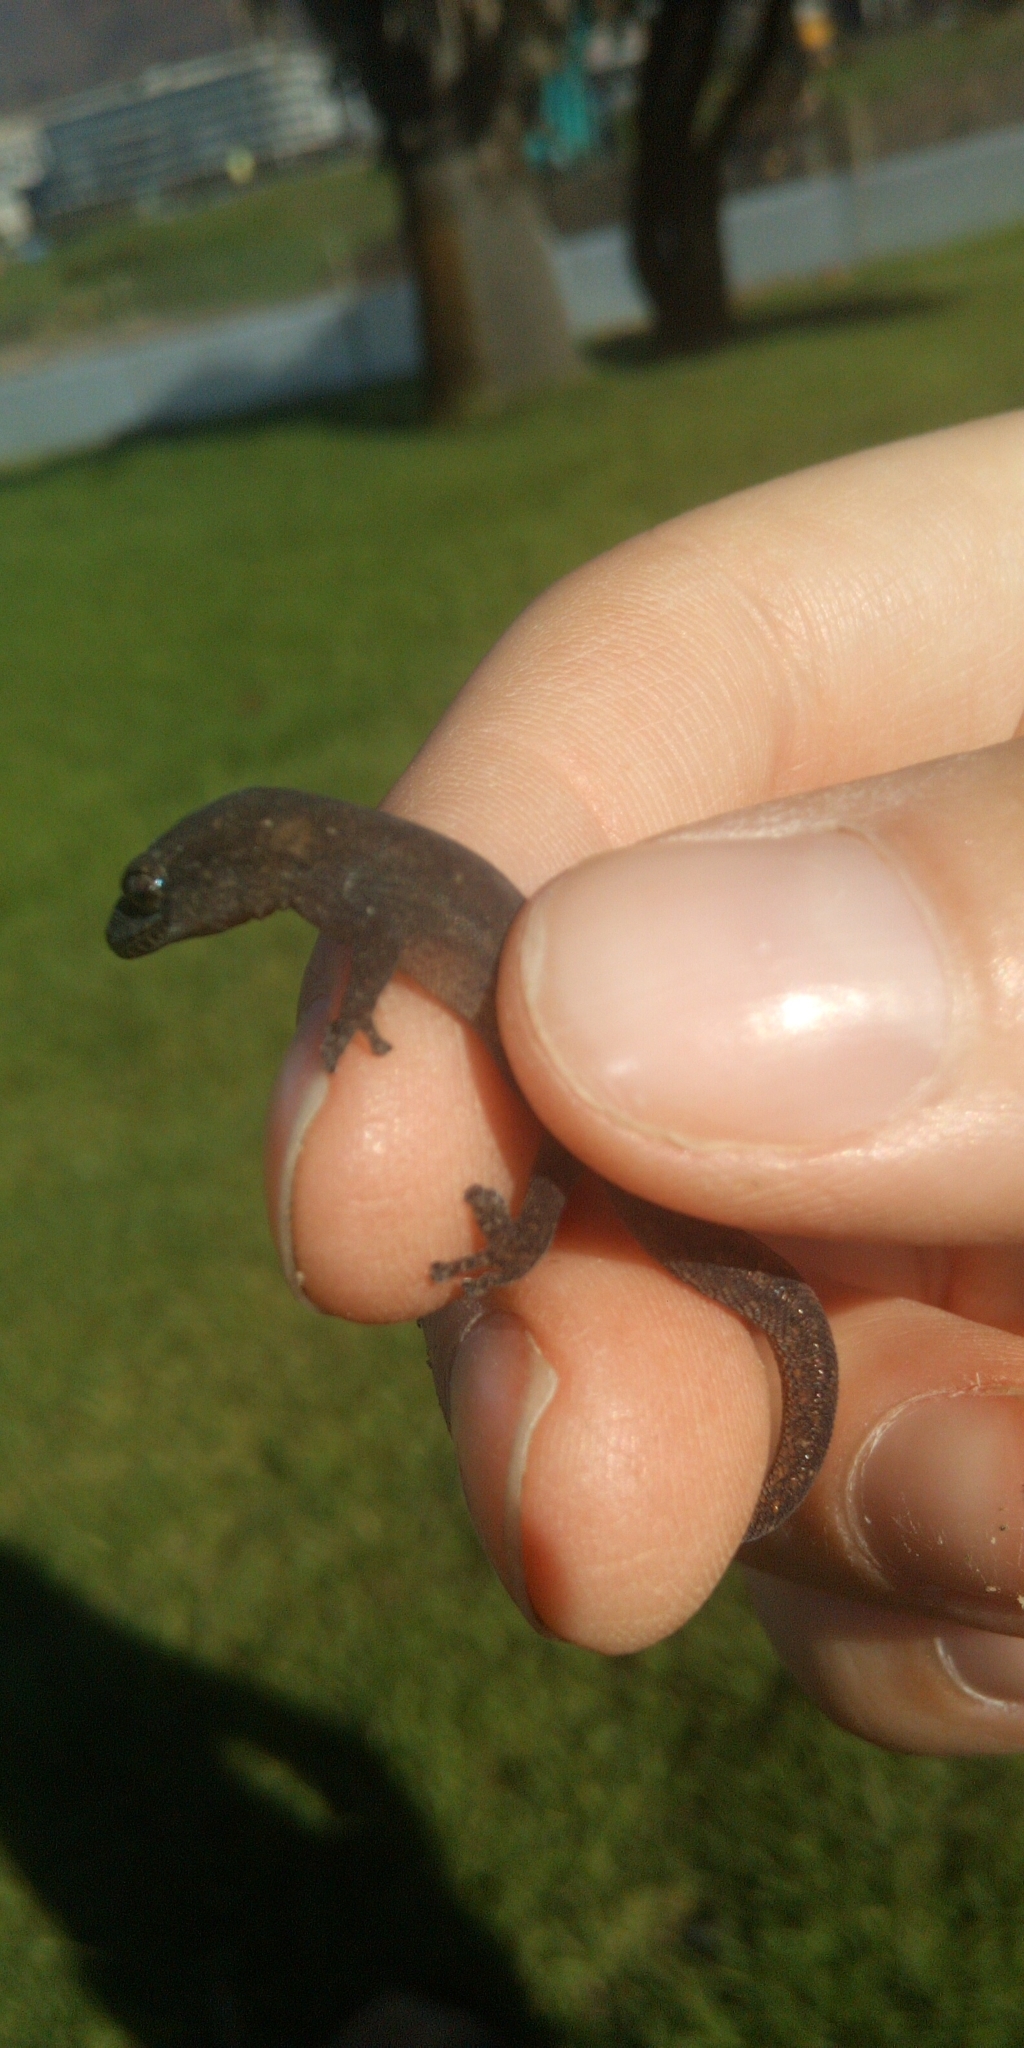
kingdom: Animalia
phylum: Chordata
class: Squamata
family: Gekkonidae
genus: Afrogecko
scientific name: Afrogecko porphyreus
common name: Marbled leaf-toed gecko
